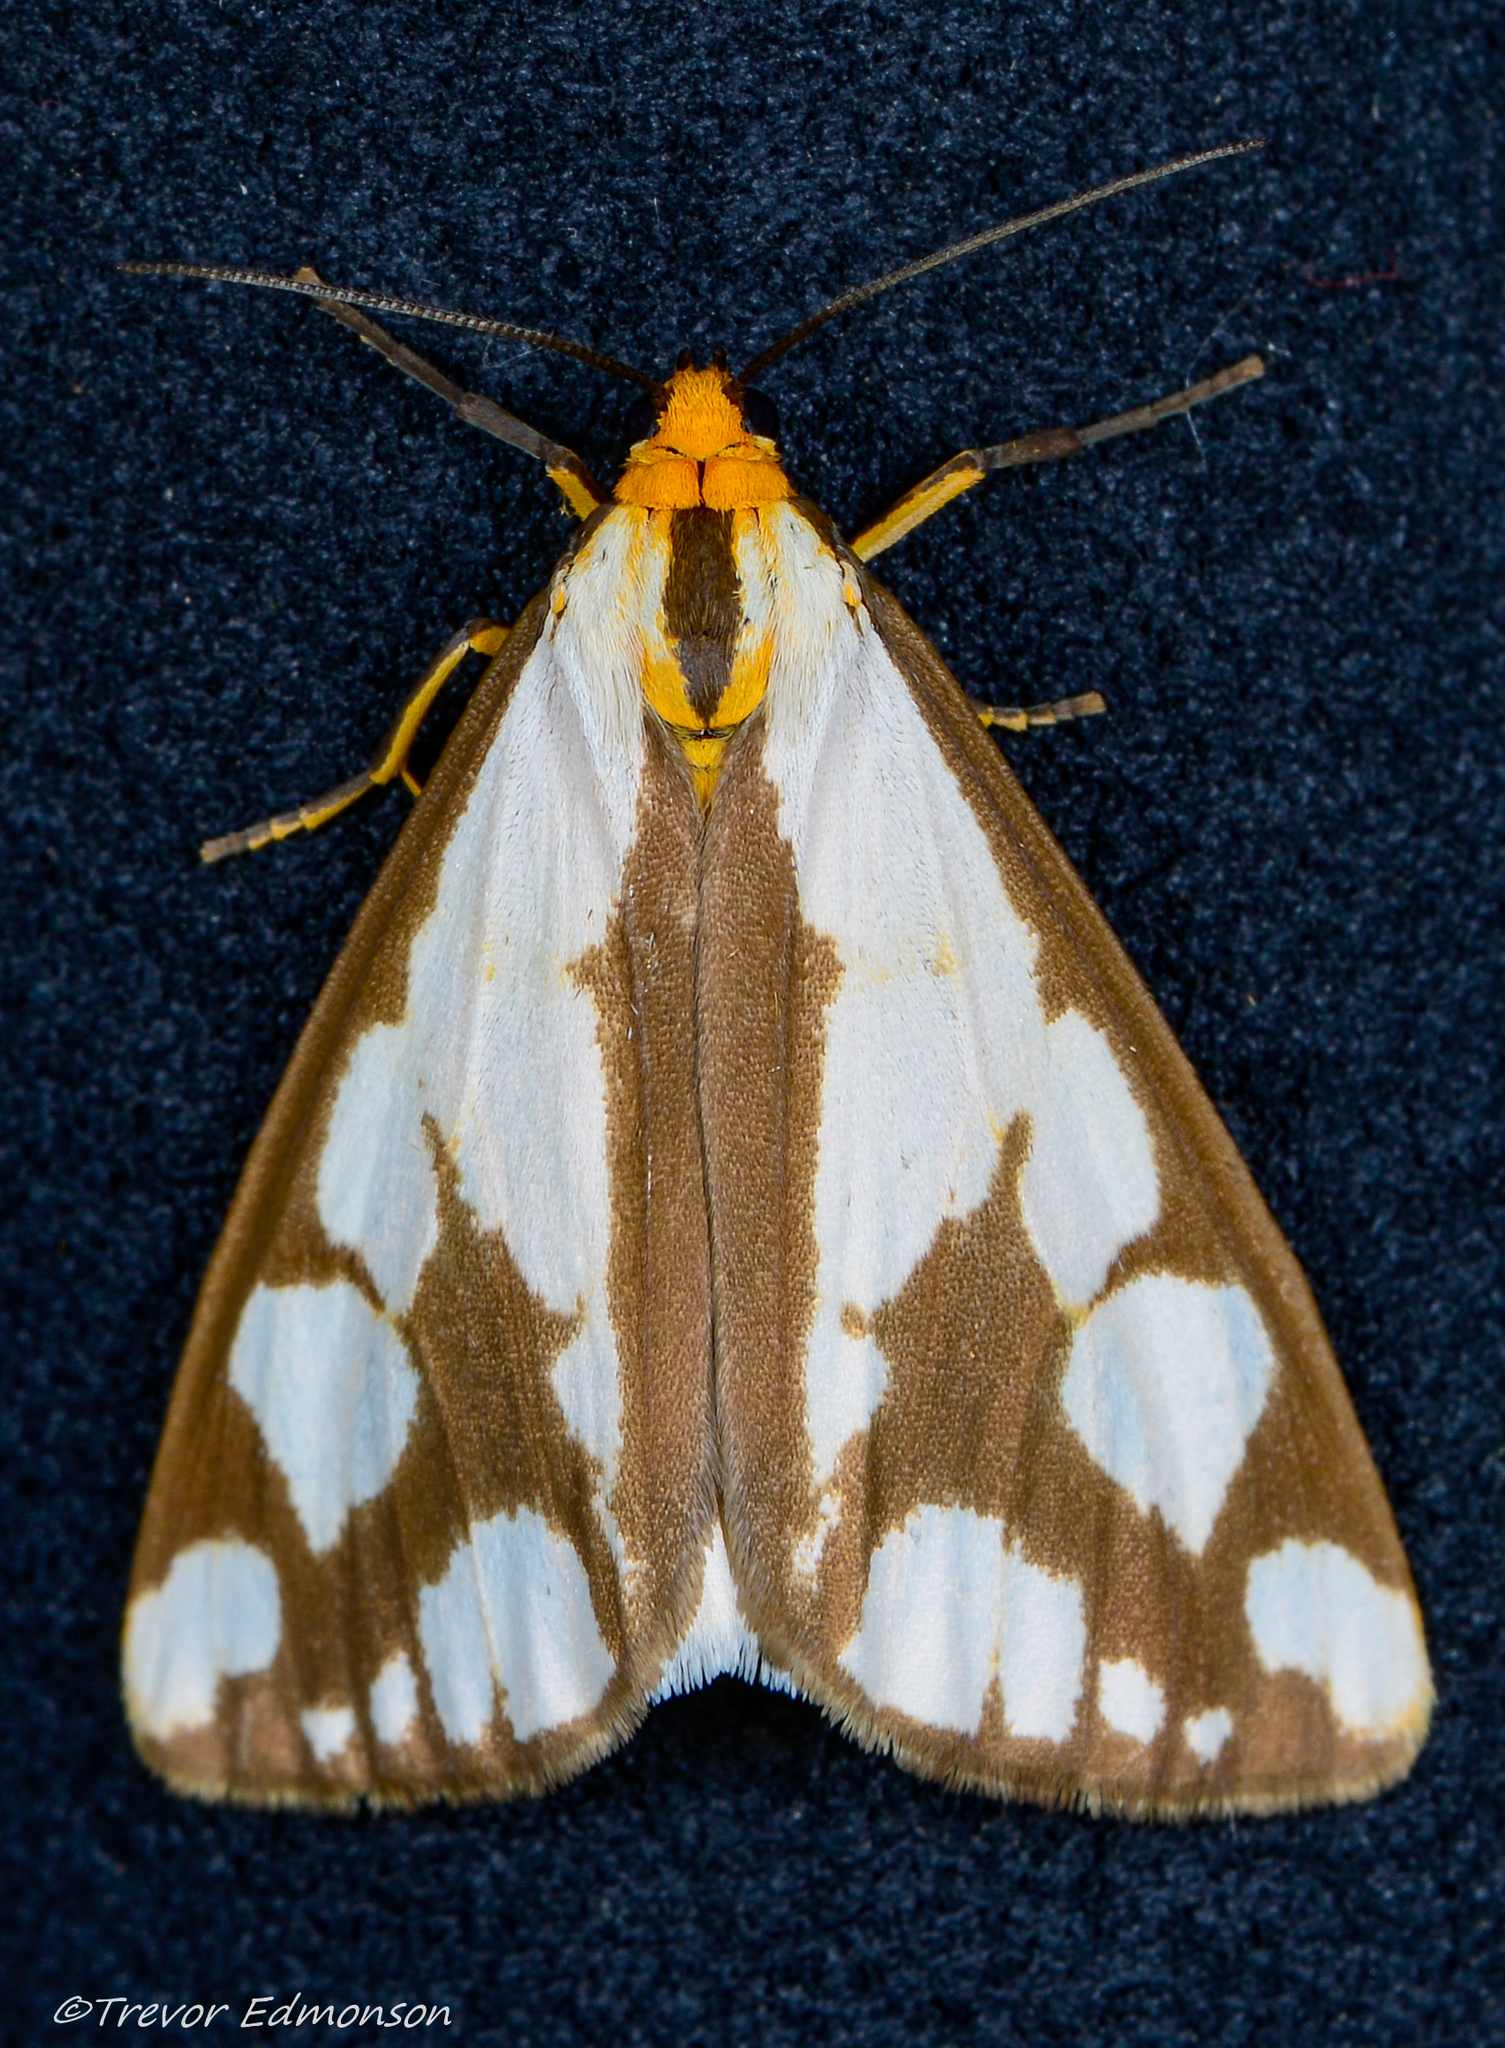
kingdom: Animalia
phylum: Arthropoda
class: Insecta
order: Lepidoptera
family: Erebidae
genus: Haploa
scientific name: Haploa confusa
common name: Confused haploa moth
